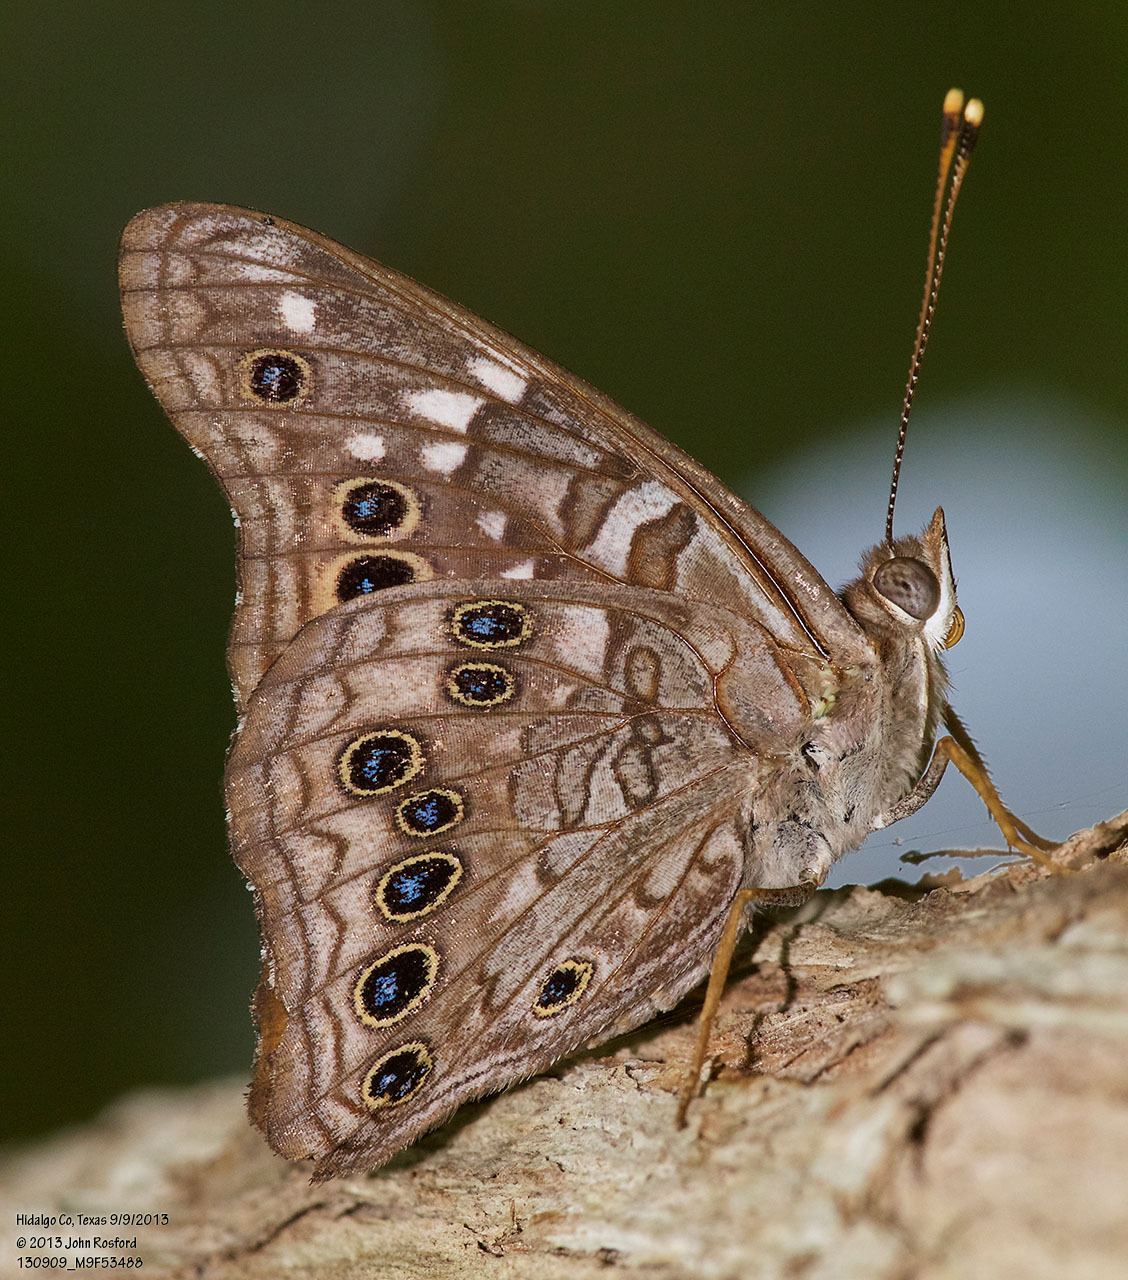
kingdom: Animalia
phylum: Arthropoda
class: Insecta
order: Lepidoptera
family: Nymphalidae
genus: Asterocampa
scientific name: Asterocampa leilia
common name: Empress leilia
